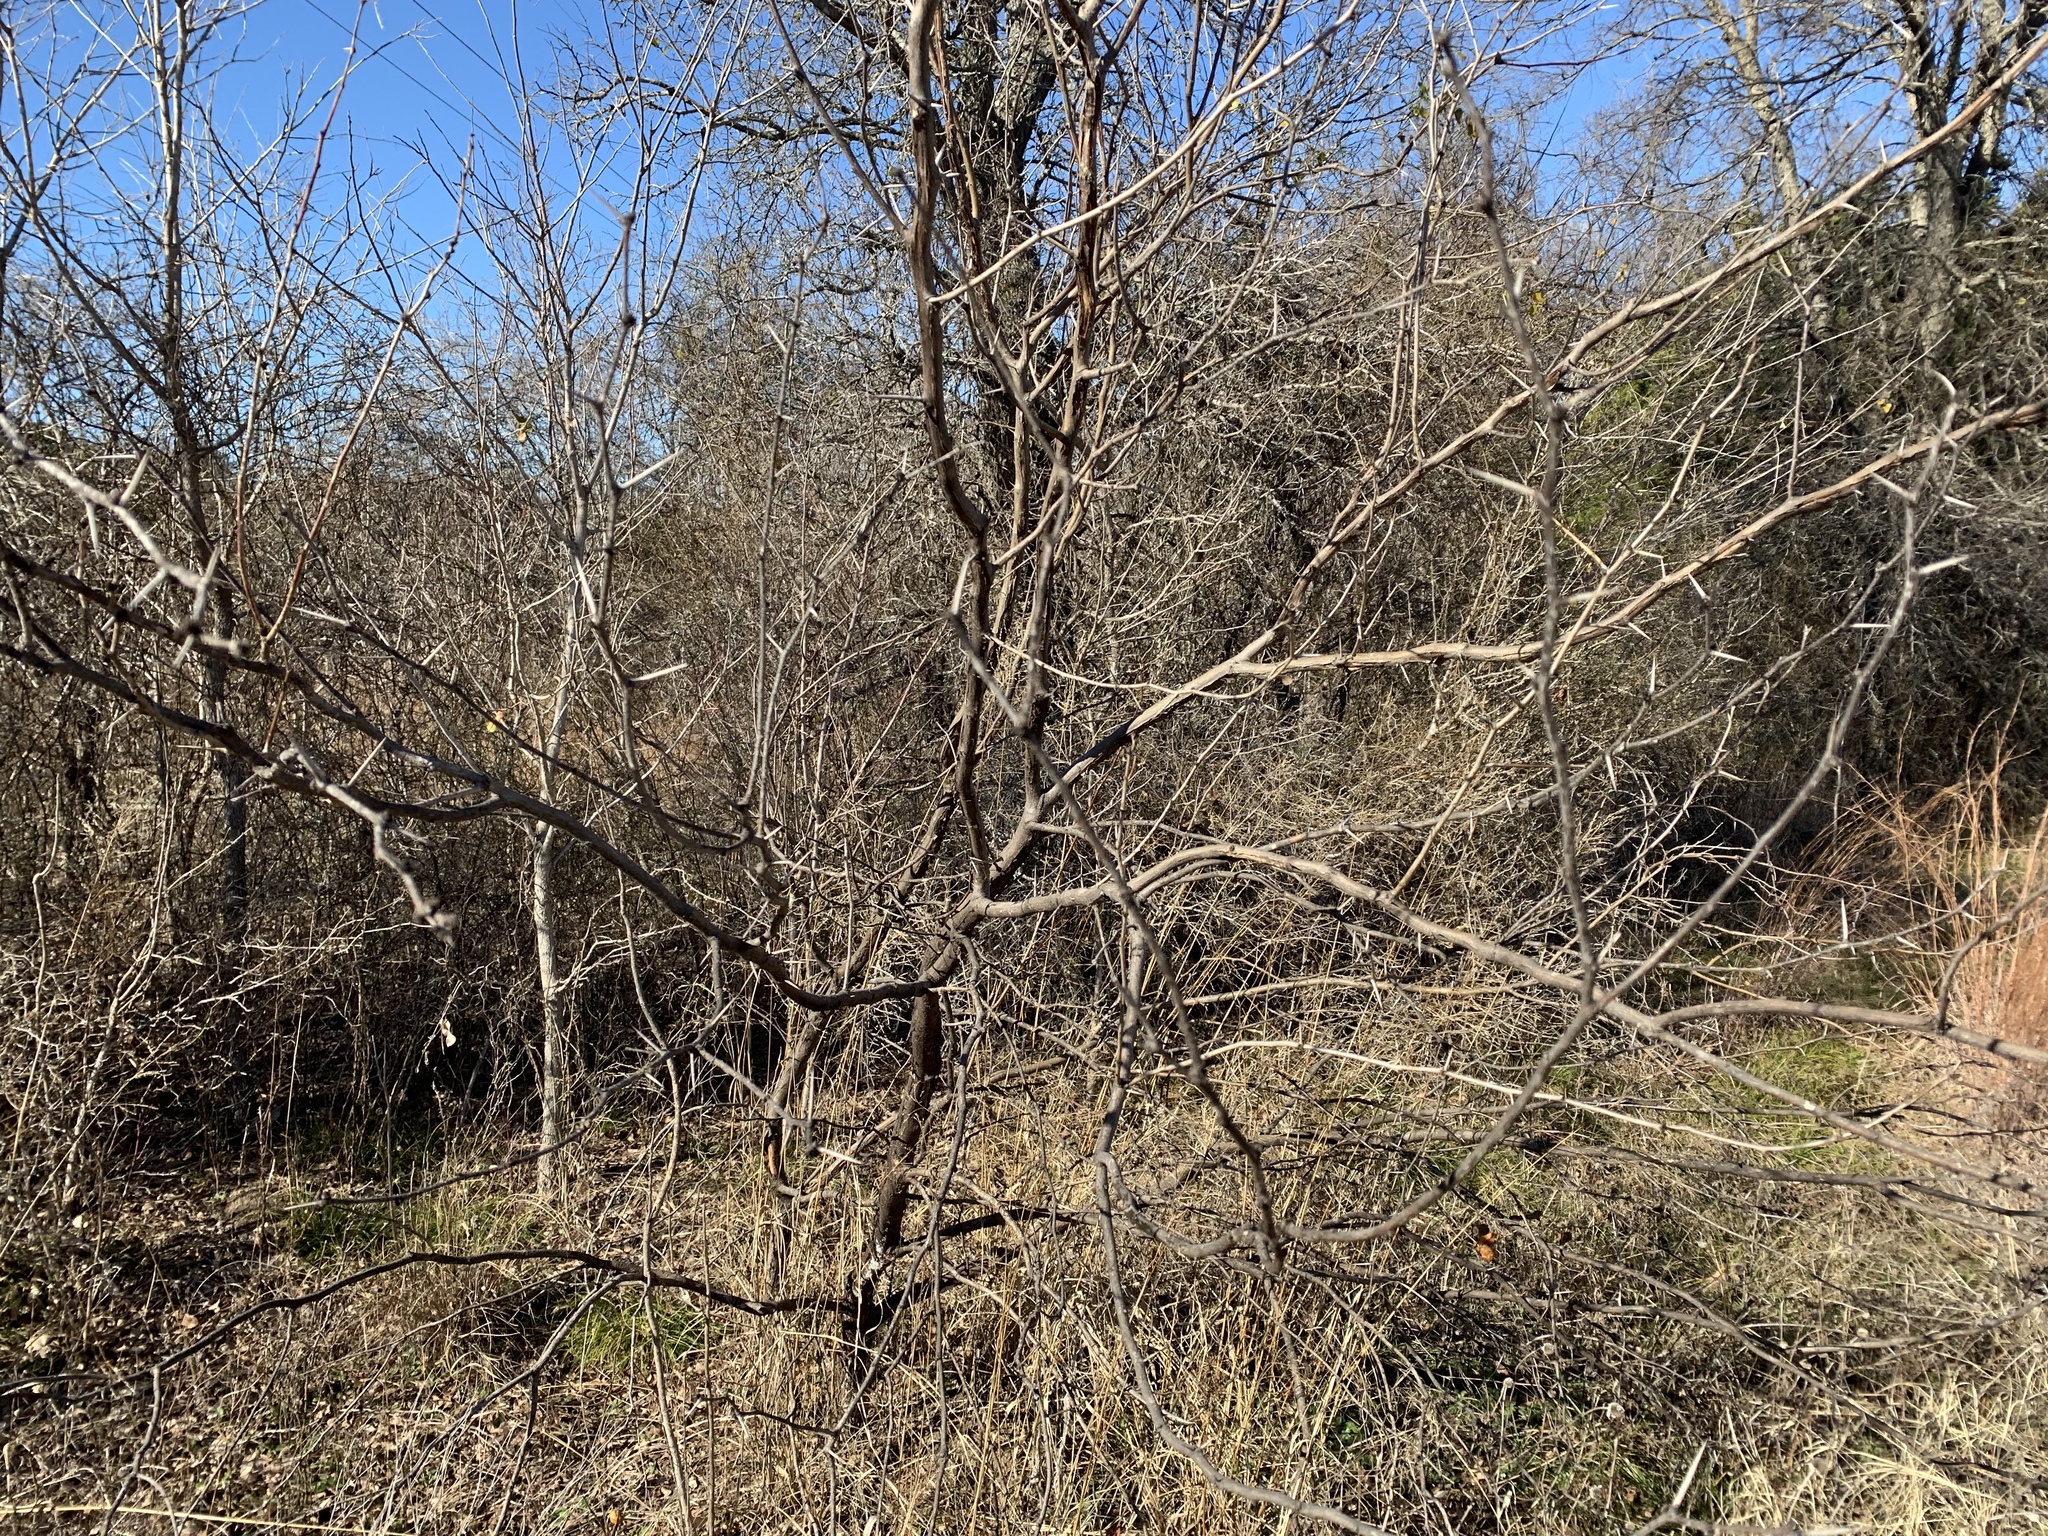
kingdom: Plantae
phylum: Tracheophyta
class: Magnoliopsida
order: Fabales
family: Fabaceae
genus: Prosopis
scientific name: Prosopis glandulosa
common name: Honey mesquite
